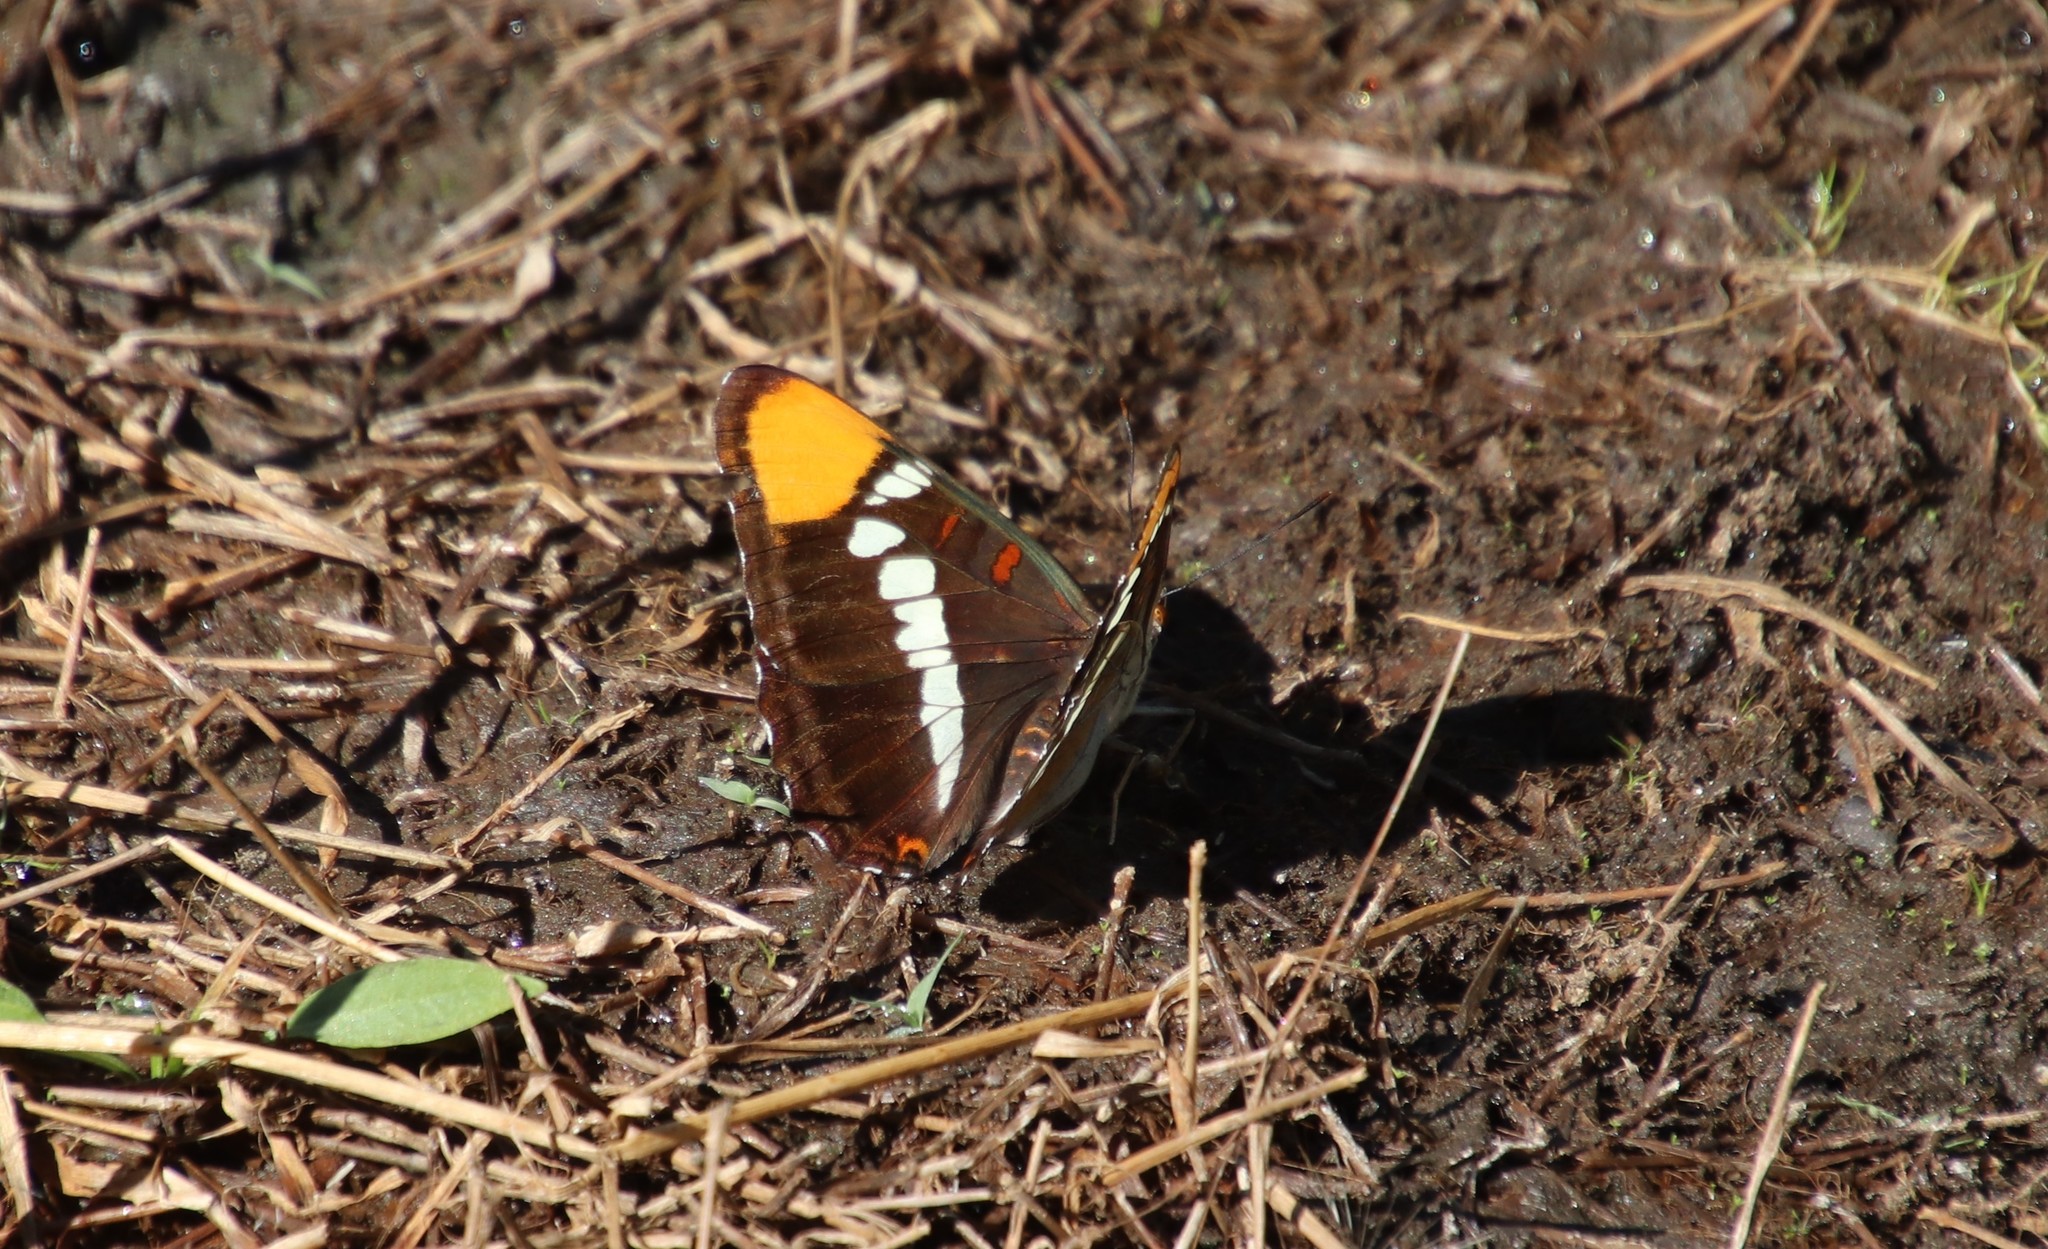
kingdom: Animalia
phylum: Arthropoda
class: Insecta
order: Lepidoptera
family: Nymphalidae
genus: Limenitis
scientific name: Limenitis bredowii
